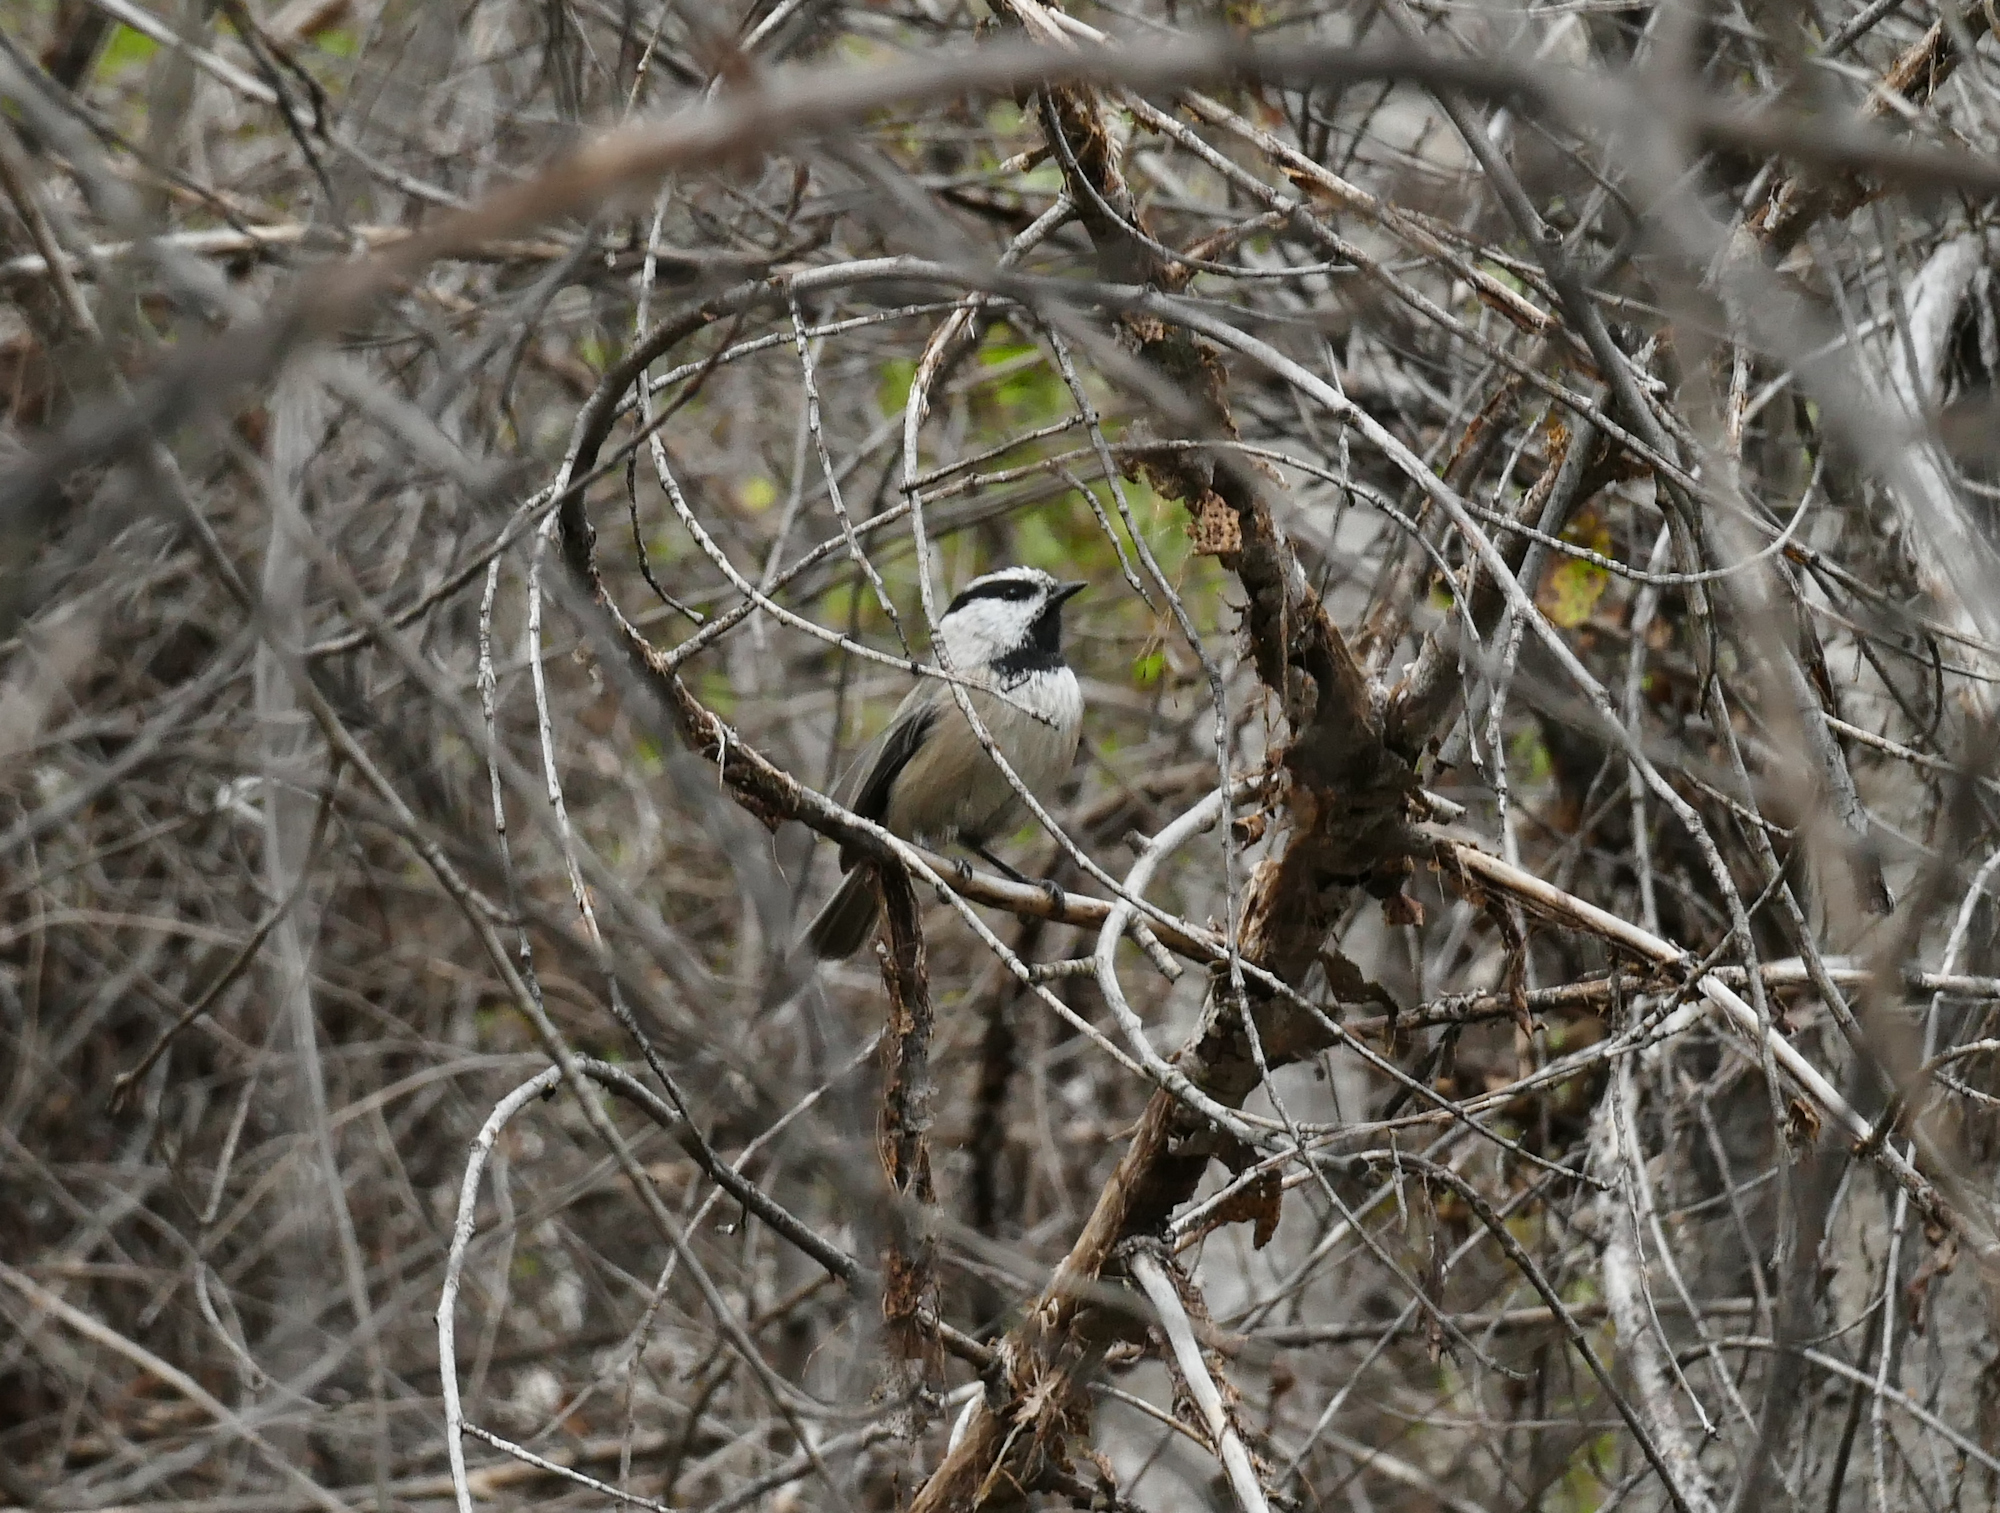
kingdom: Animalia
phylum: Chordata
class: Aves
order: Passeriformes
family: Paridae
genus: Poecile
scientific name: Poecile gambeli
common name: Mountain chickadee
